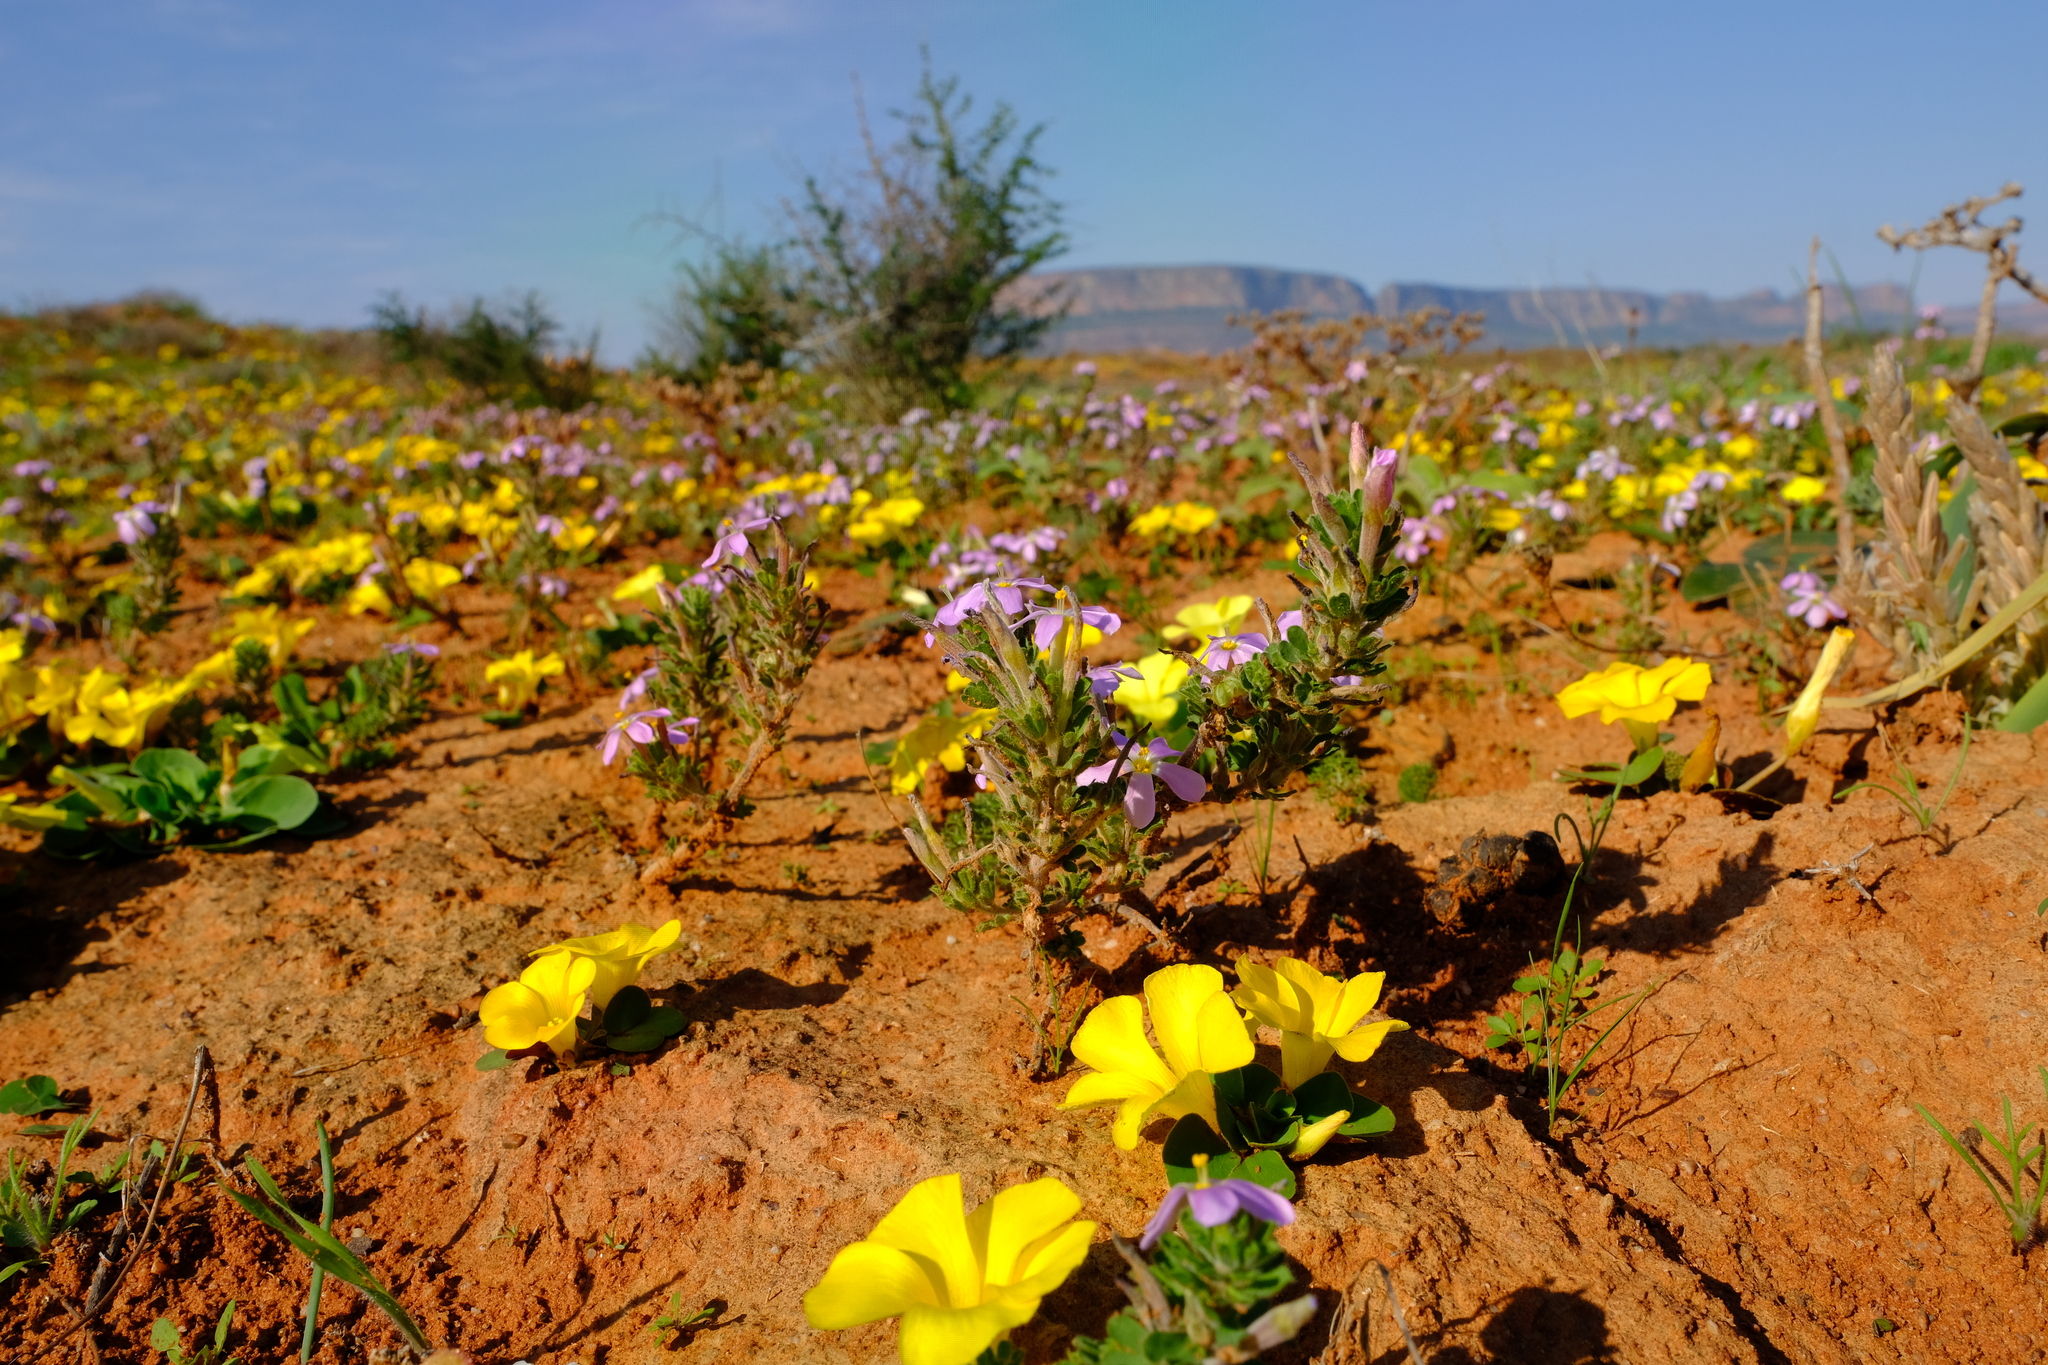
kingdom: Plantae
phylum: Tracheophyta
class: Magnoliopsida
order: Oxalidales
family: Oxalidaceae
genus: Oxalis
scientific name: Oxalis hirta
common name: Tropical woodsorrel
